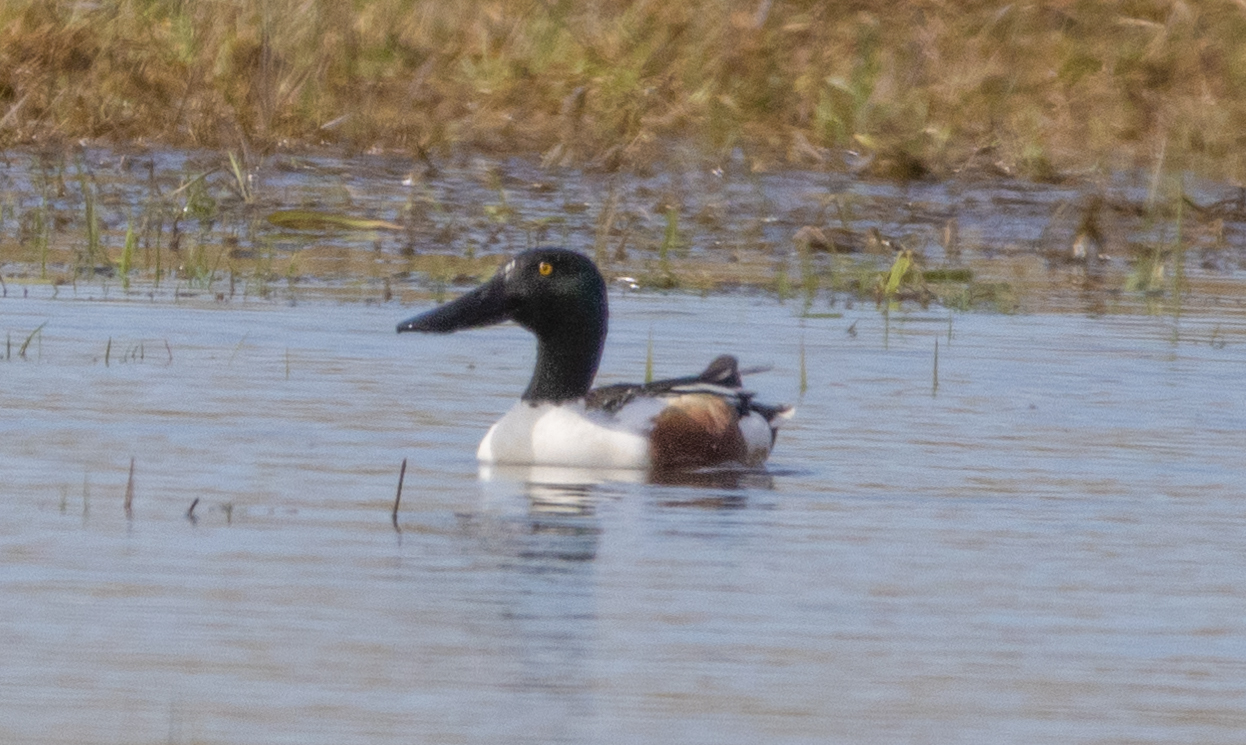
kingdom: Animalia
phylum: Chordata
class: Aves
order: Anseriformes
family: Anatidae
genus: Spatula
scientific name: Spatula clypeata
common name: Northern shoveler
